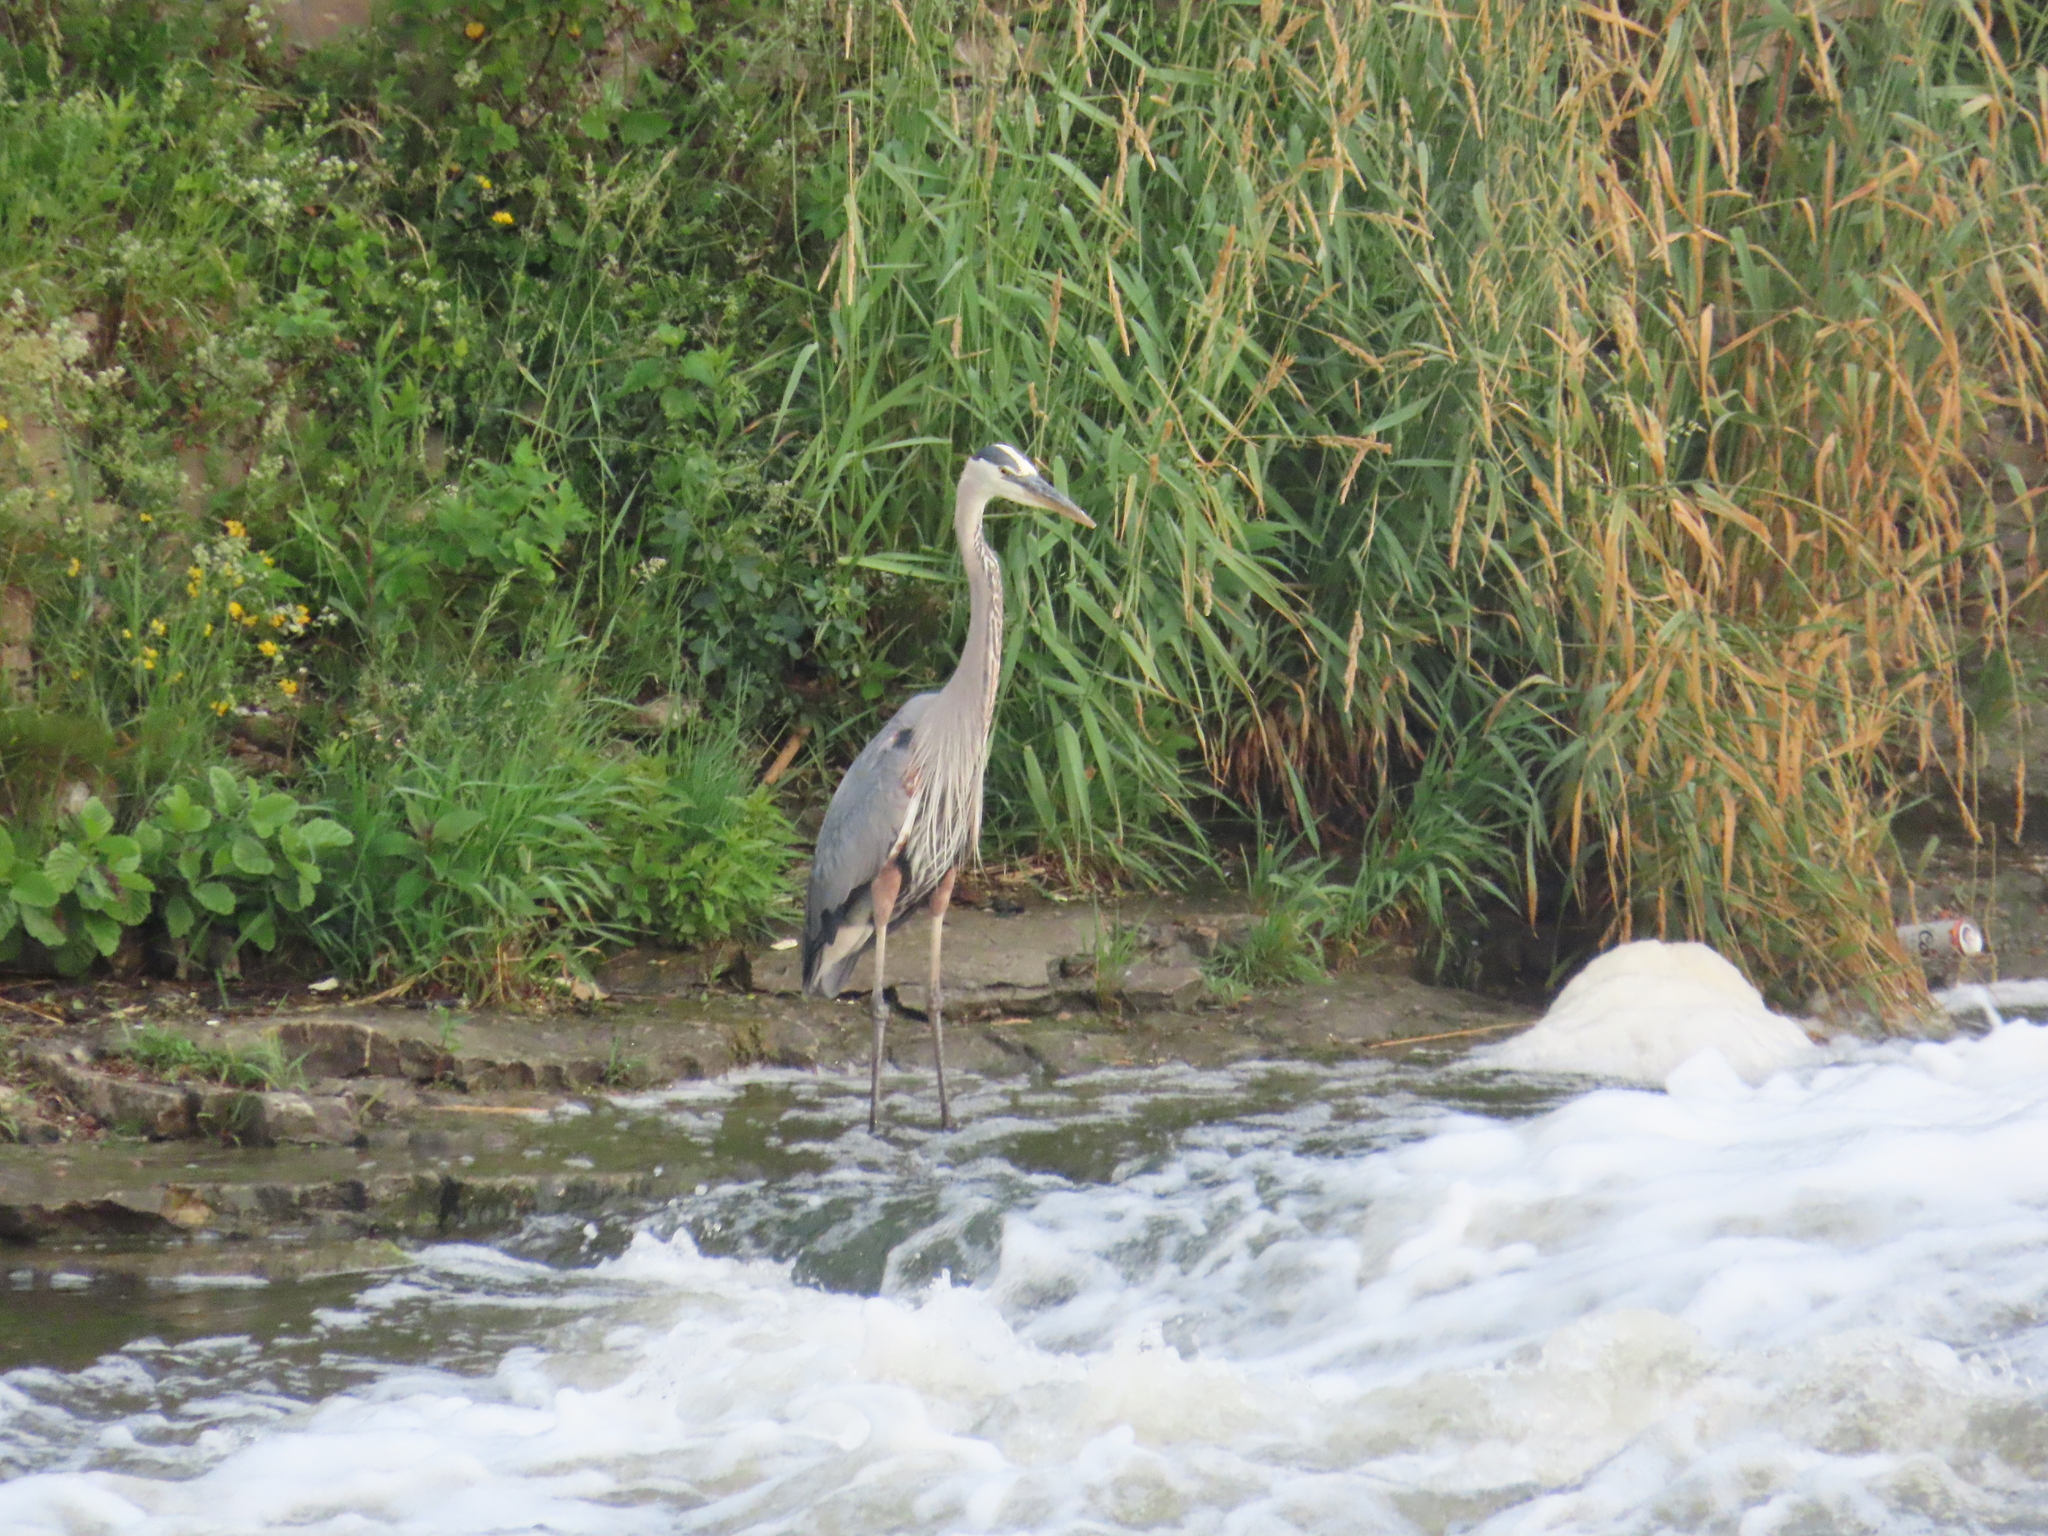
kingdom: Animalia
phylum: Chordata
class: Aves
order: Pelecaniformes
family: Ardeidae
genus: Ardea
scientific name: Ardea herodias
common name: Great blue heron
